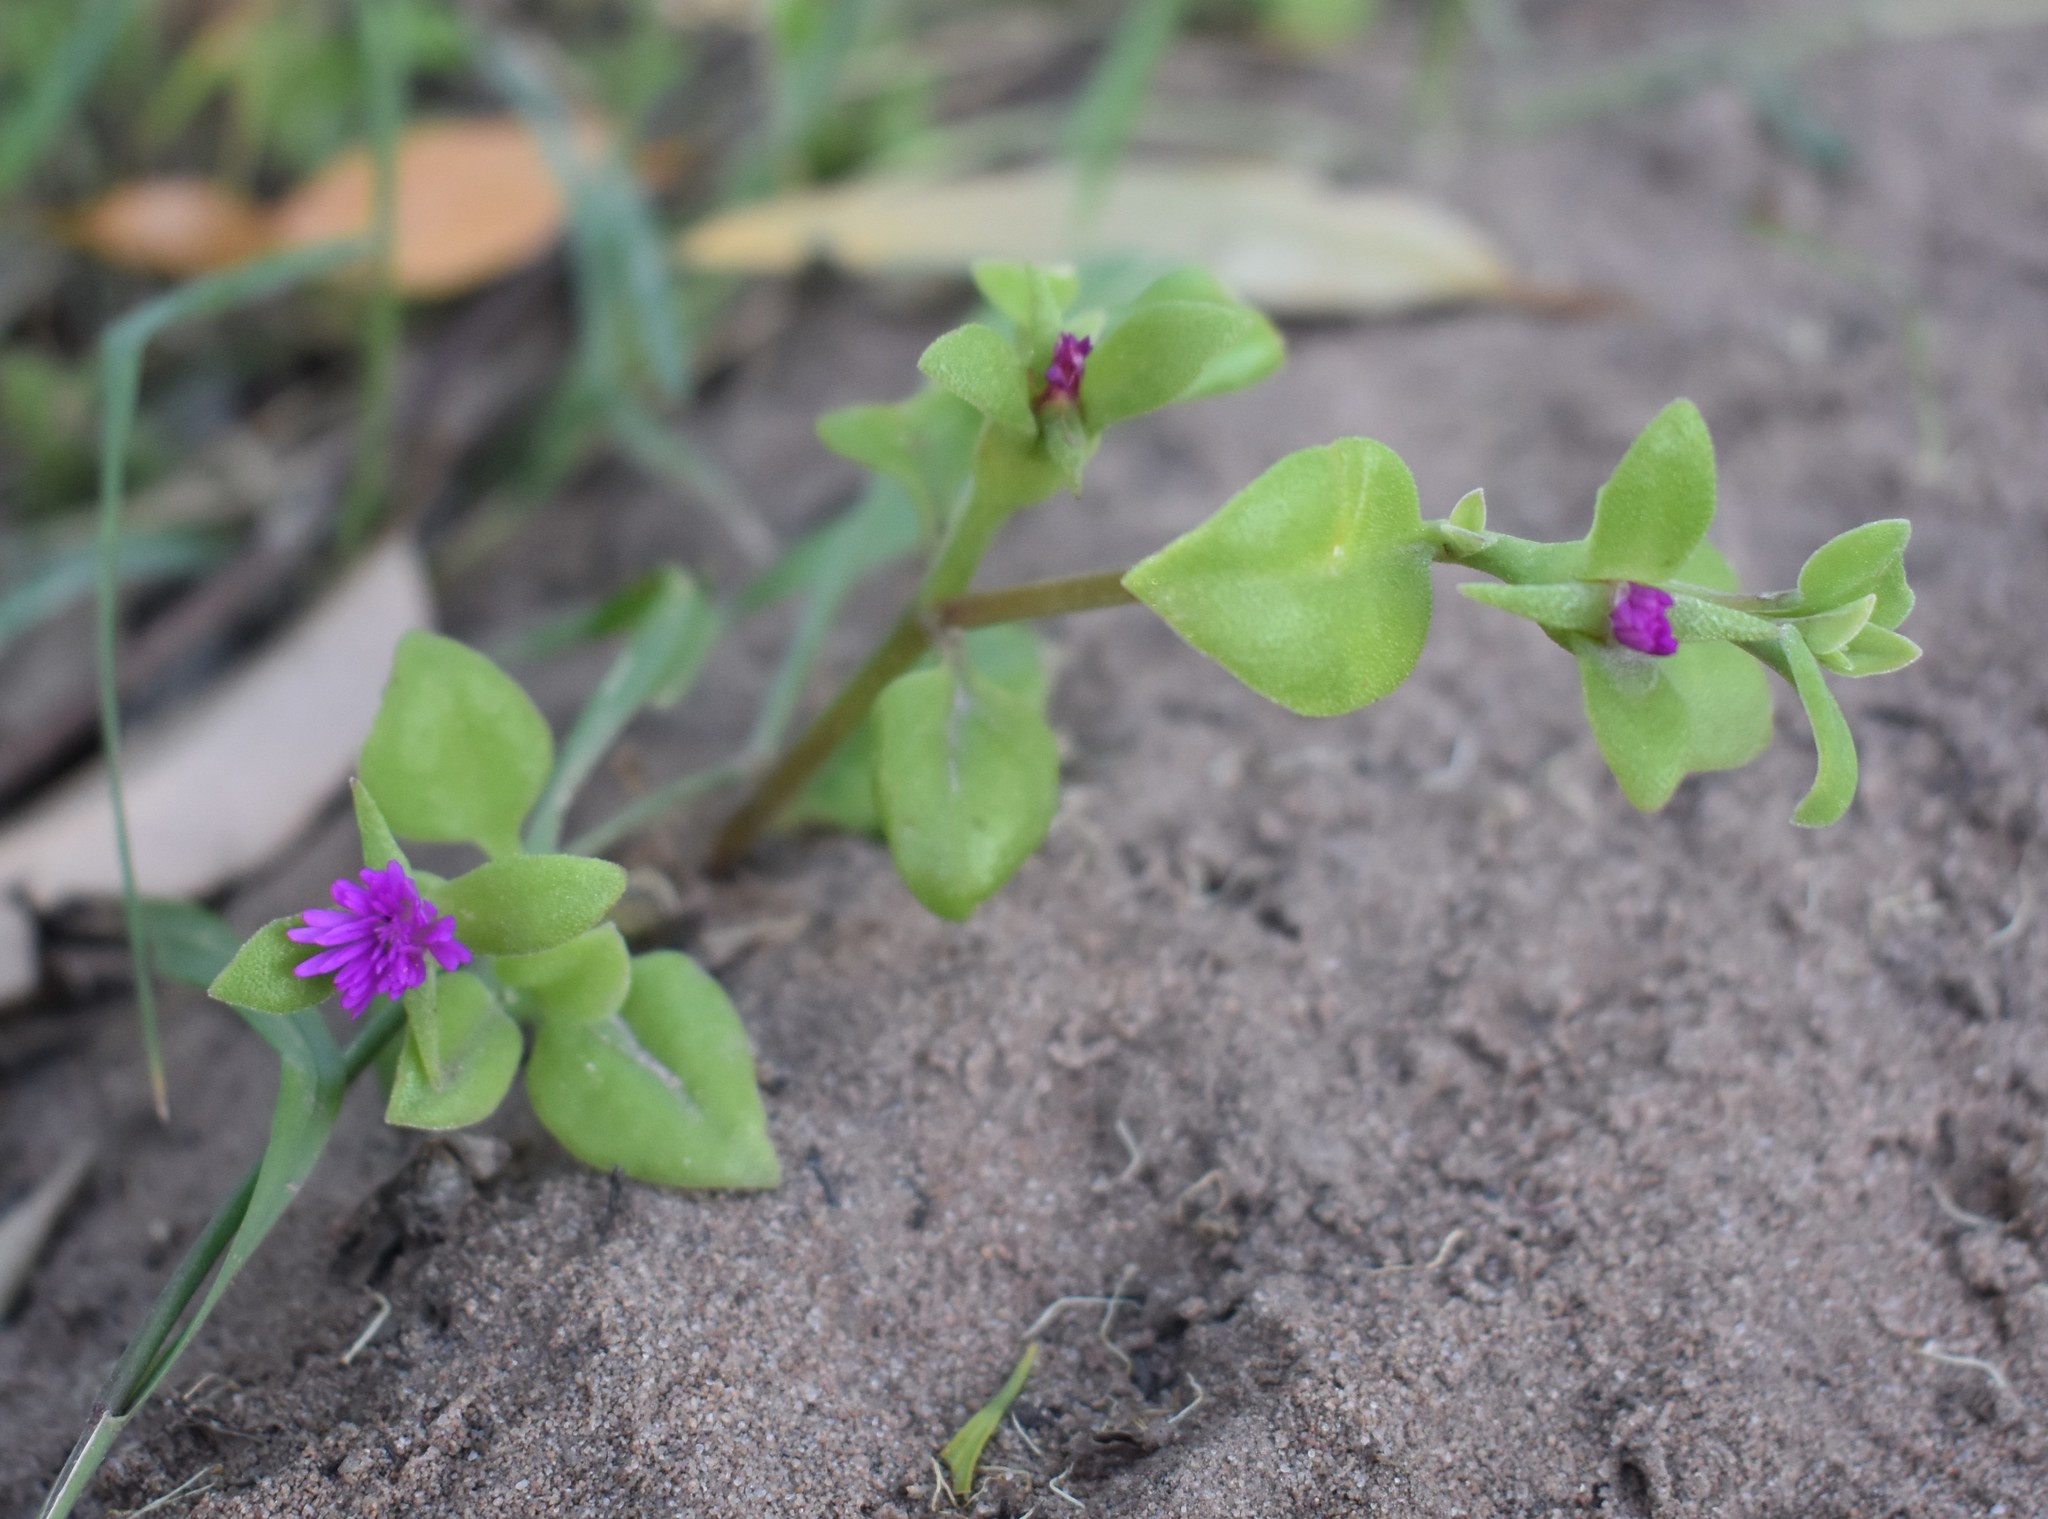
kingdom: Plantae
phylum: Tracheophyta
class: Magnoliopsida
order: Caryophyllales
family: Aizoaceae
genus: Mesembryanthemum
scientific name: Mesembryanthemum cordifolium
